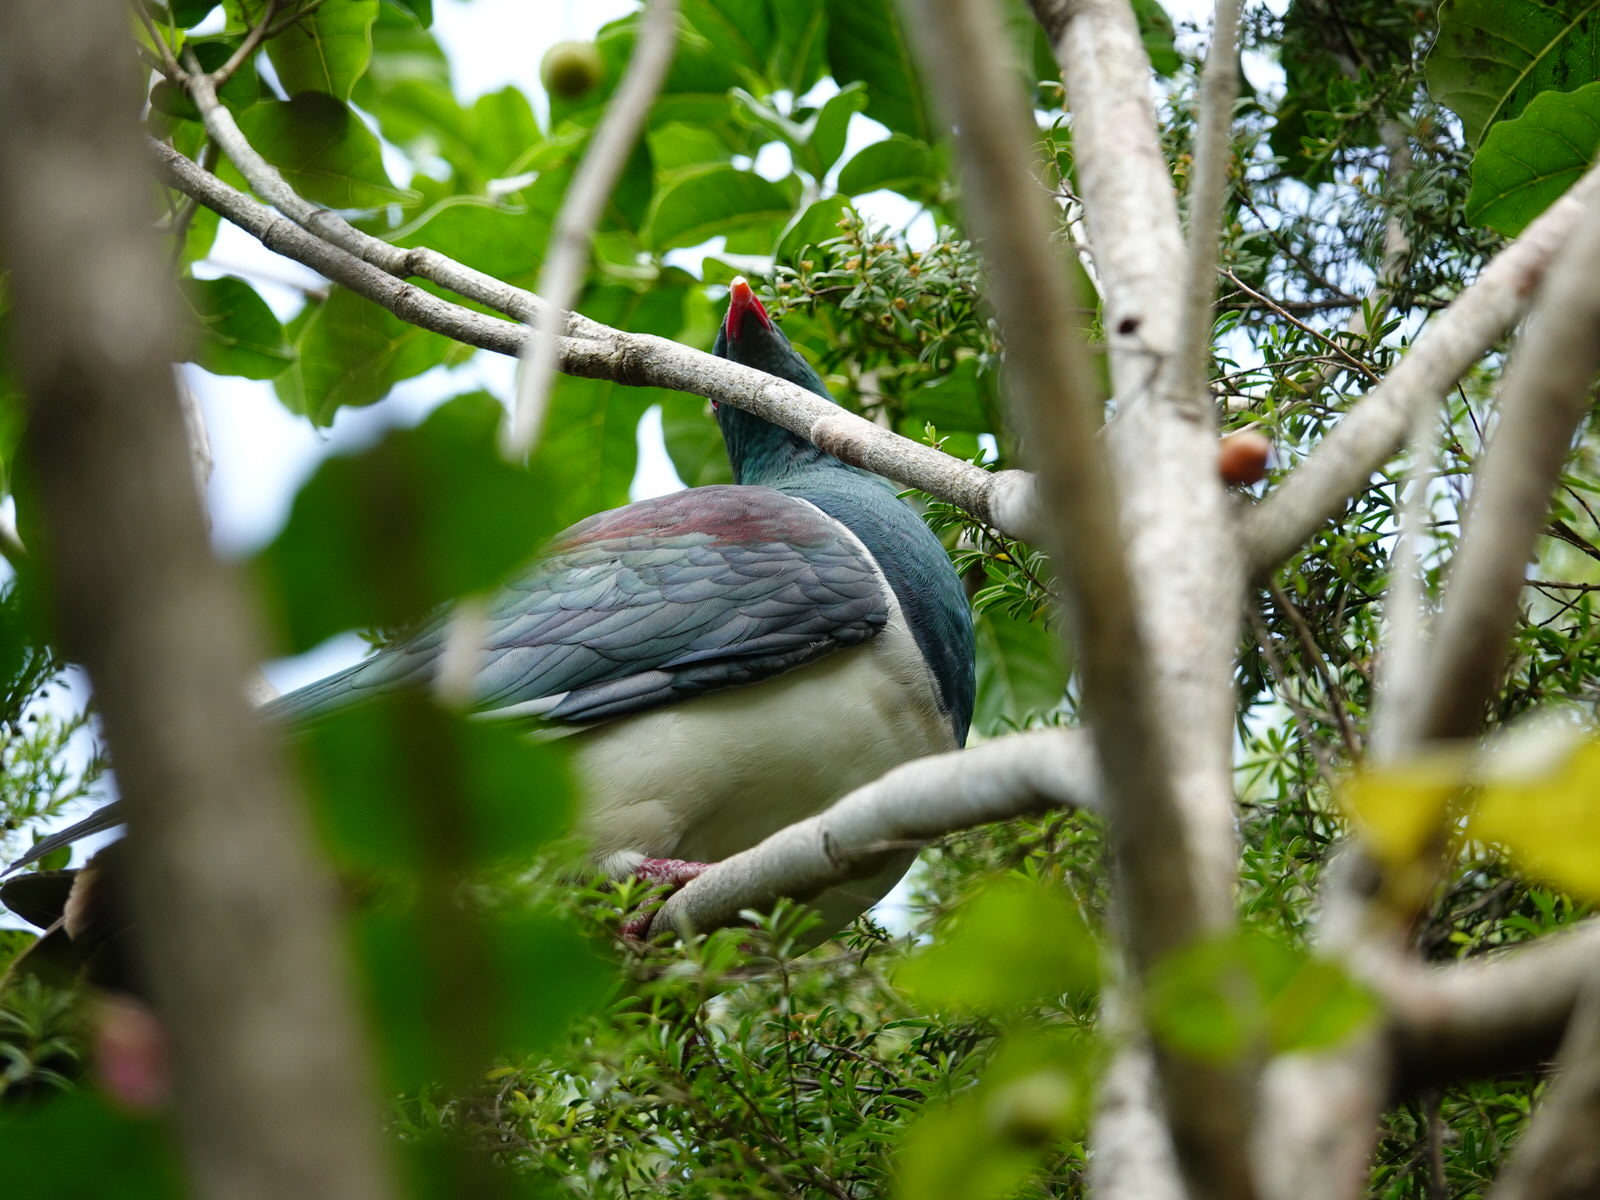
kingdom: Animalia
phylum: Chordata
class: Aves
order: Columbiformes
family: Columbidae
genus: Hemiphaga
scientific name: Hemiphaga novaeseelandiae
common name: New zealand pigeon
